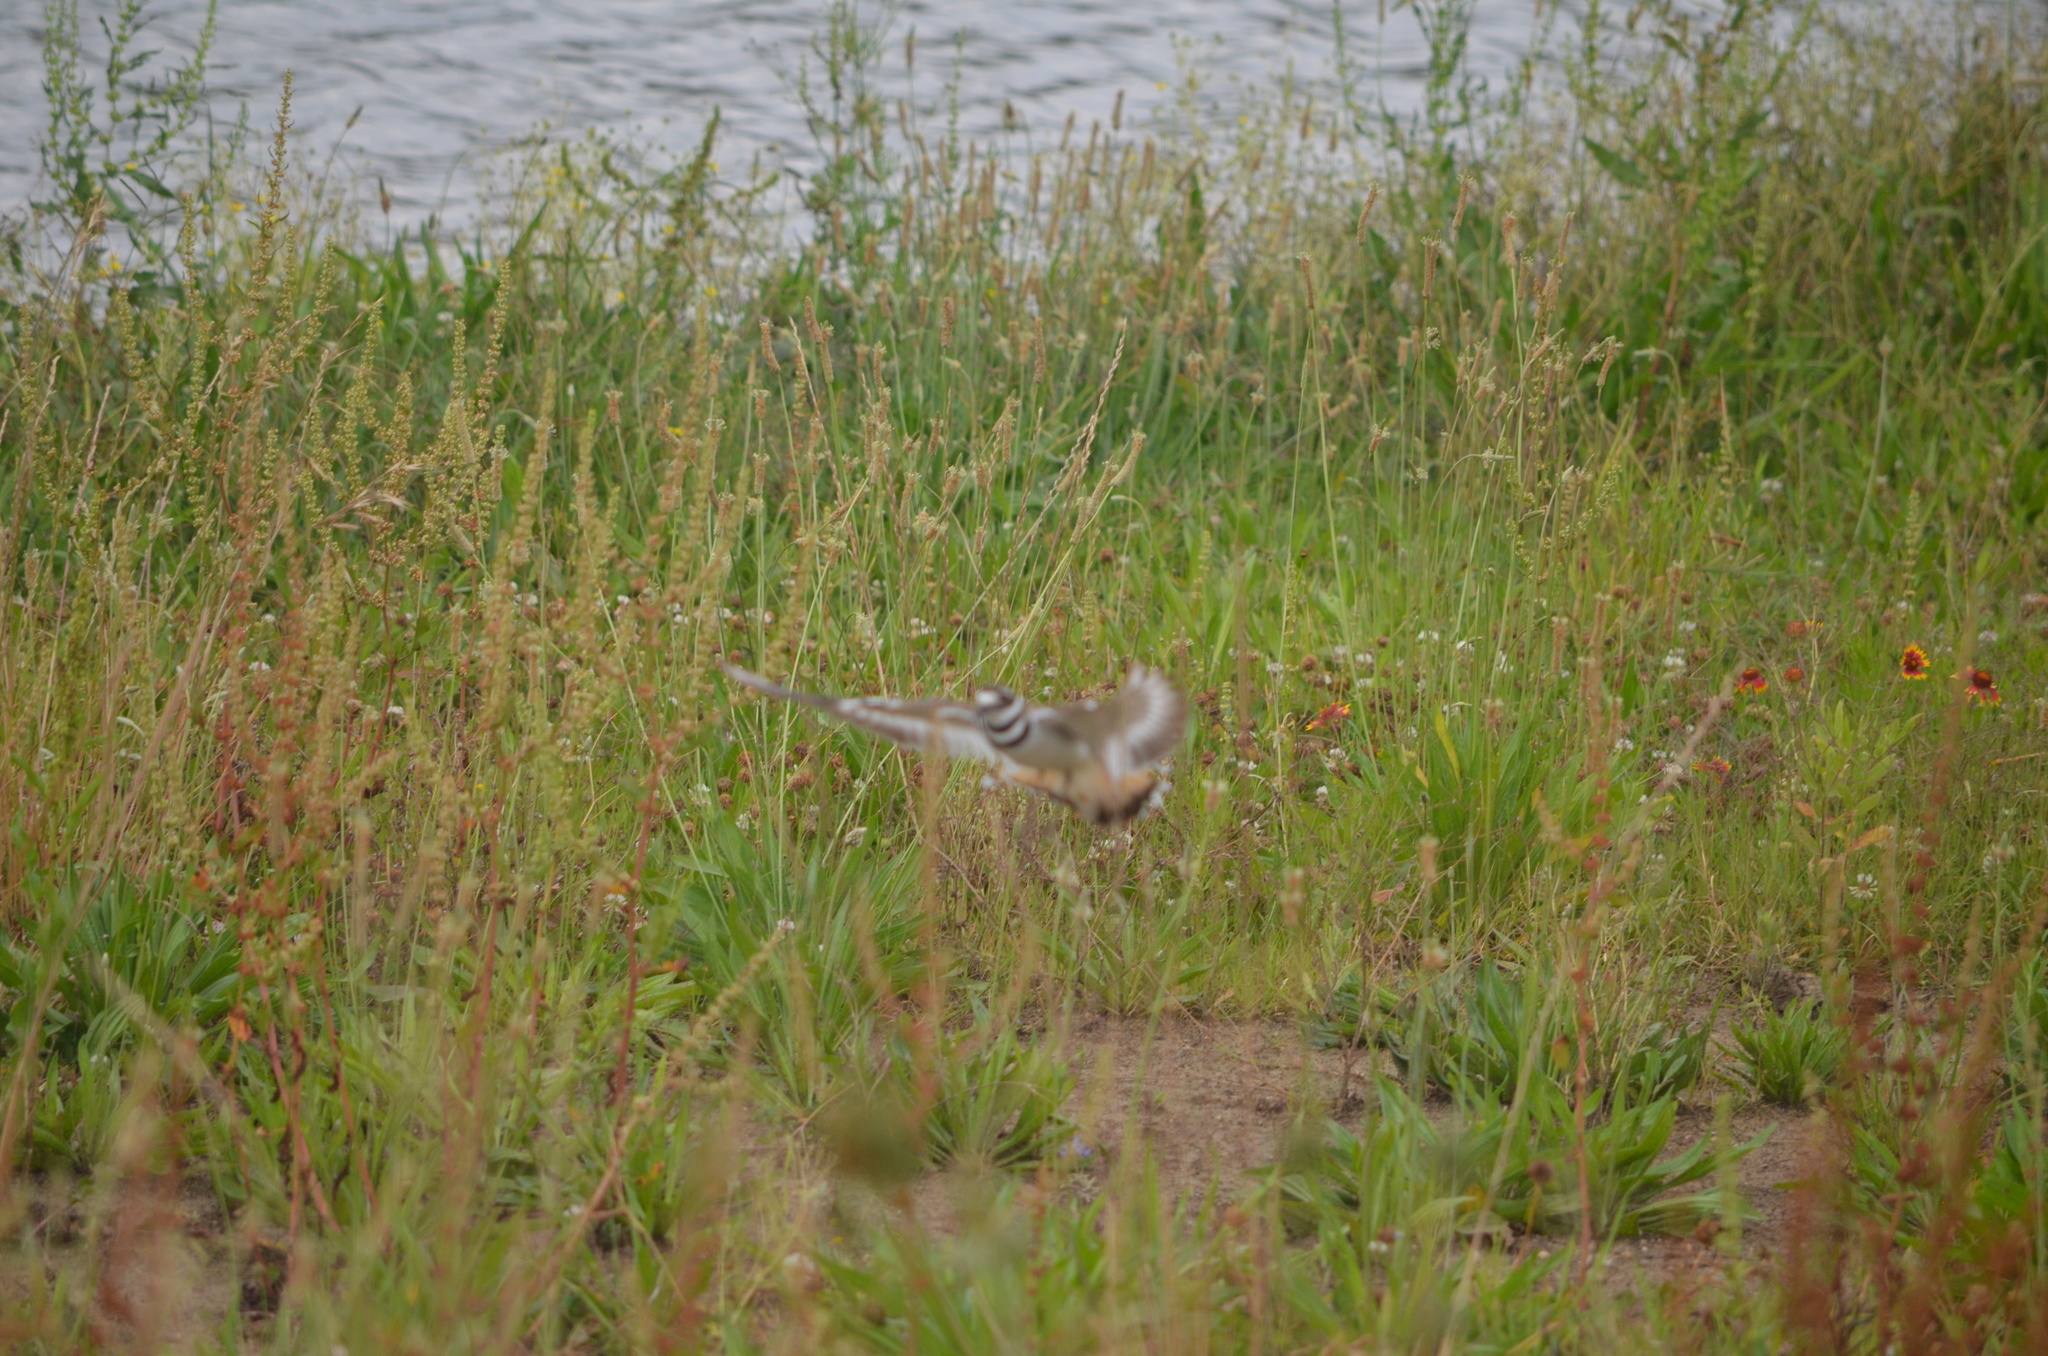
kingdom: Animalia
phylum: Chordata
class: Aves
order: Charadriiformes
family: Charadriidae
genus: Charadrius
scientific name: Charadrius vociferus
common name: Killdeer
